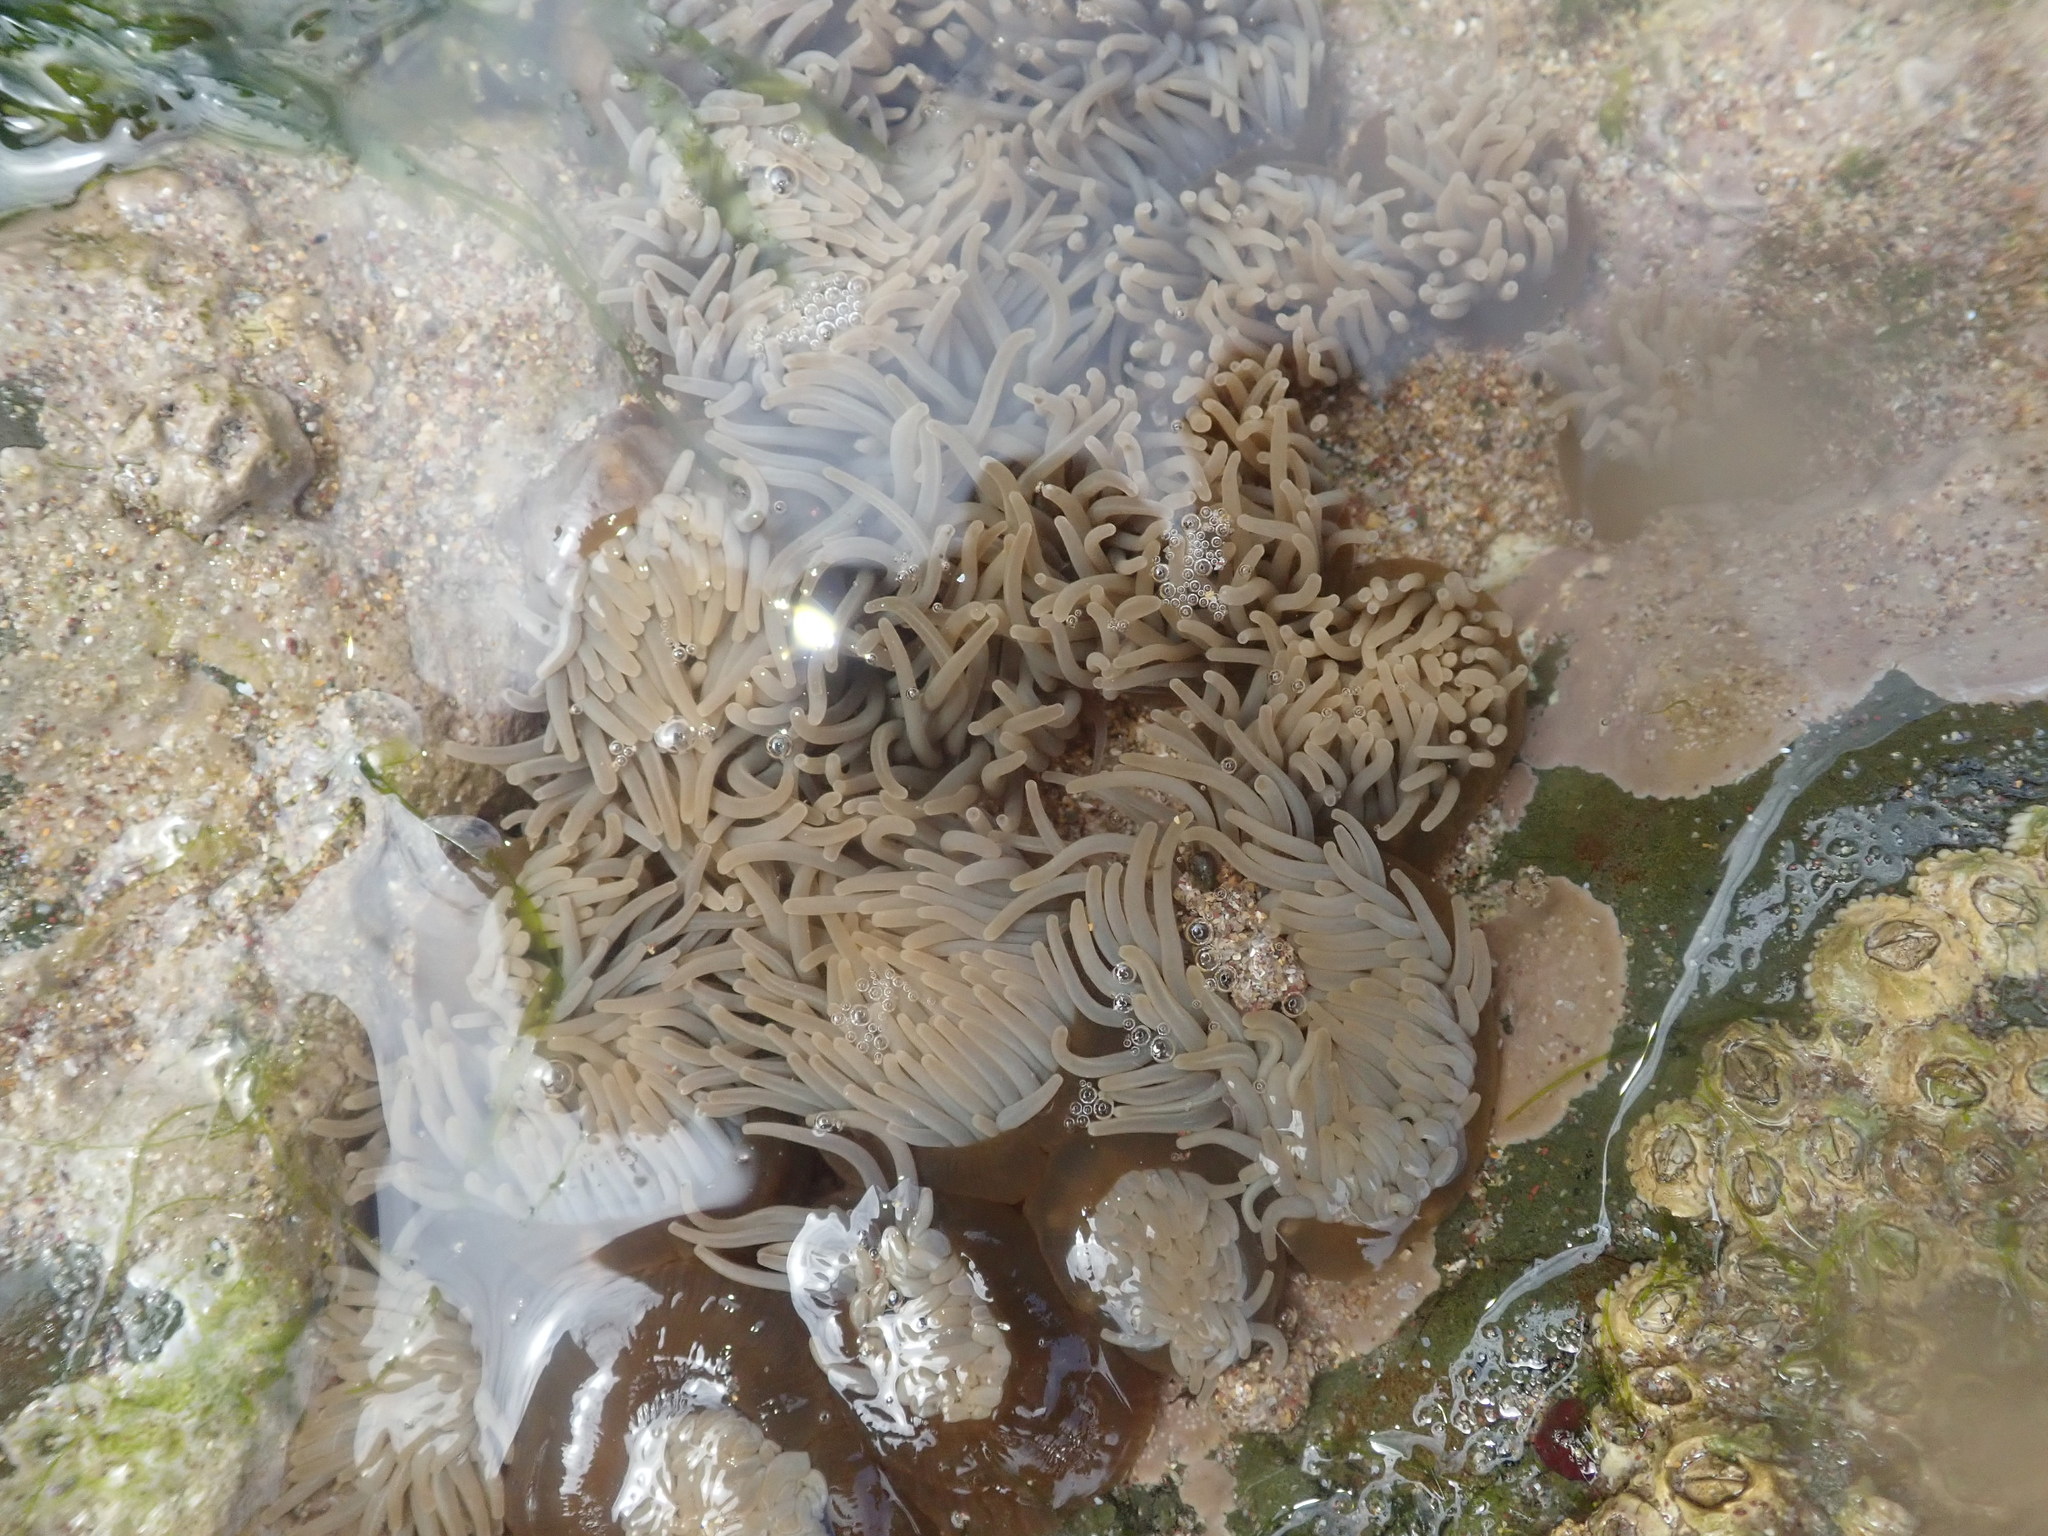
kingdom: Animalia
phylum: Cnidaria
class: Anthozoa
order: Actiniaria
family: Actiniidae
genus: Anemonia
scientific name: Anemonia viridis
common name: Snakelocks anemone
